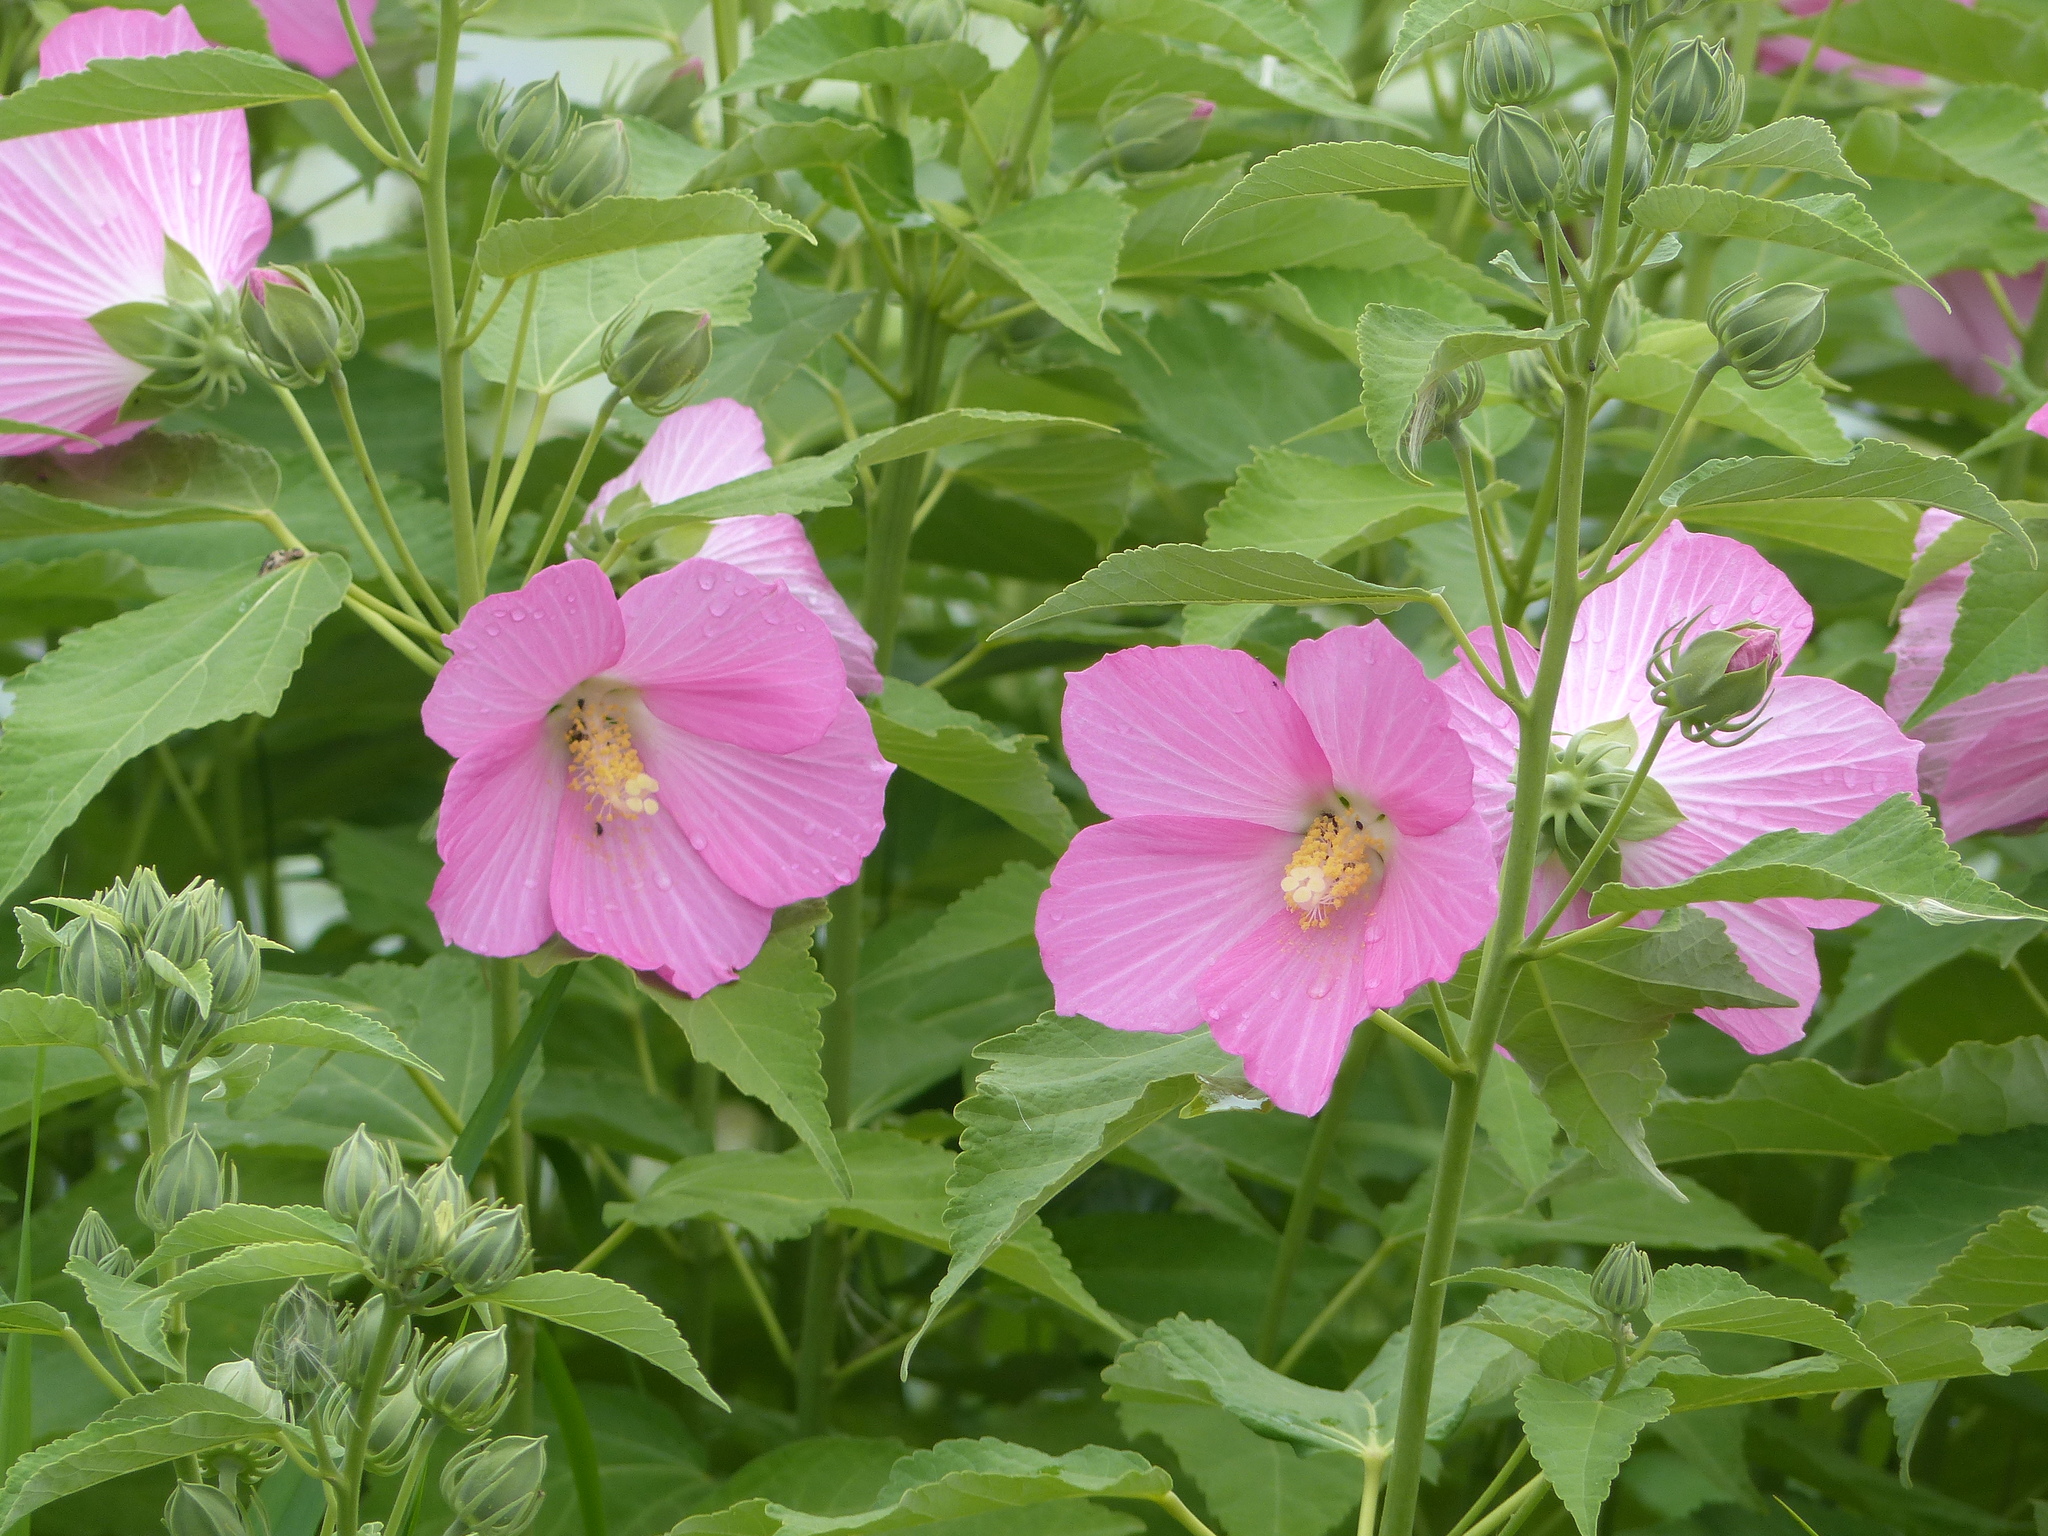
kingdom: Plantae
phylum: Tracheophyta
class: Magnoliopsida
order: Malvales
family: Malvaceae
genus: Hibiscus
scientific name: Hibiscus moscheutos
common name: Common rose-mallow
